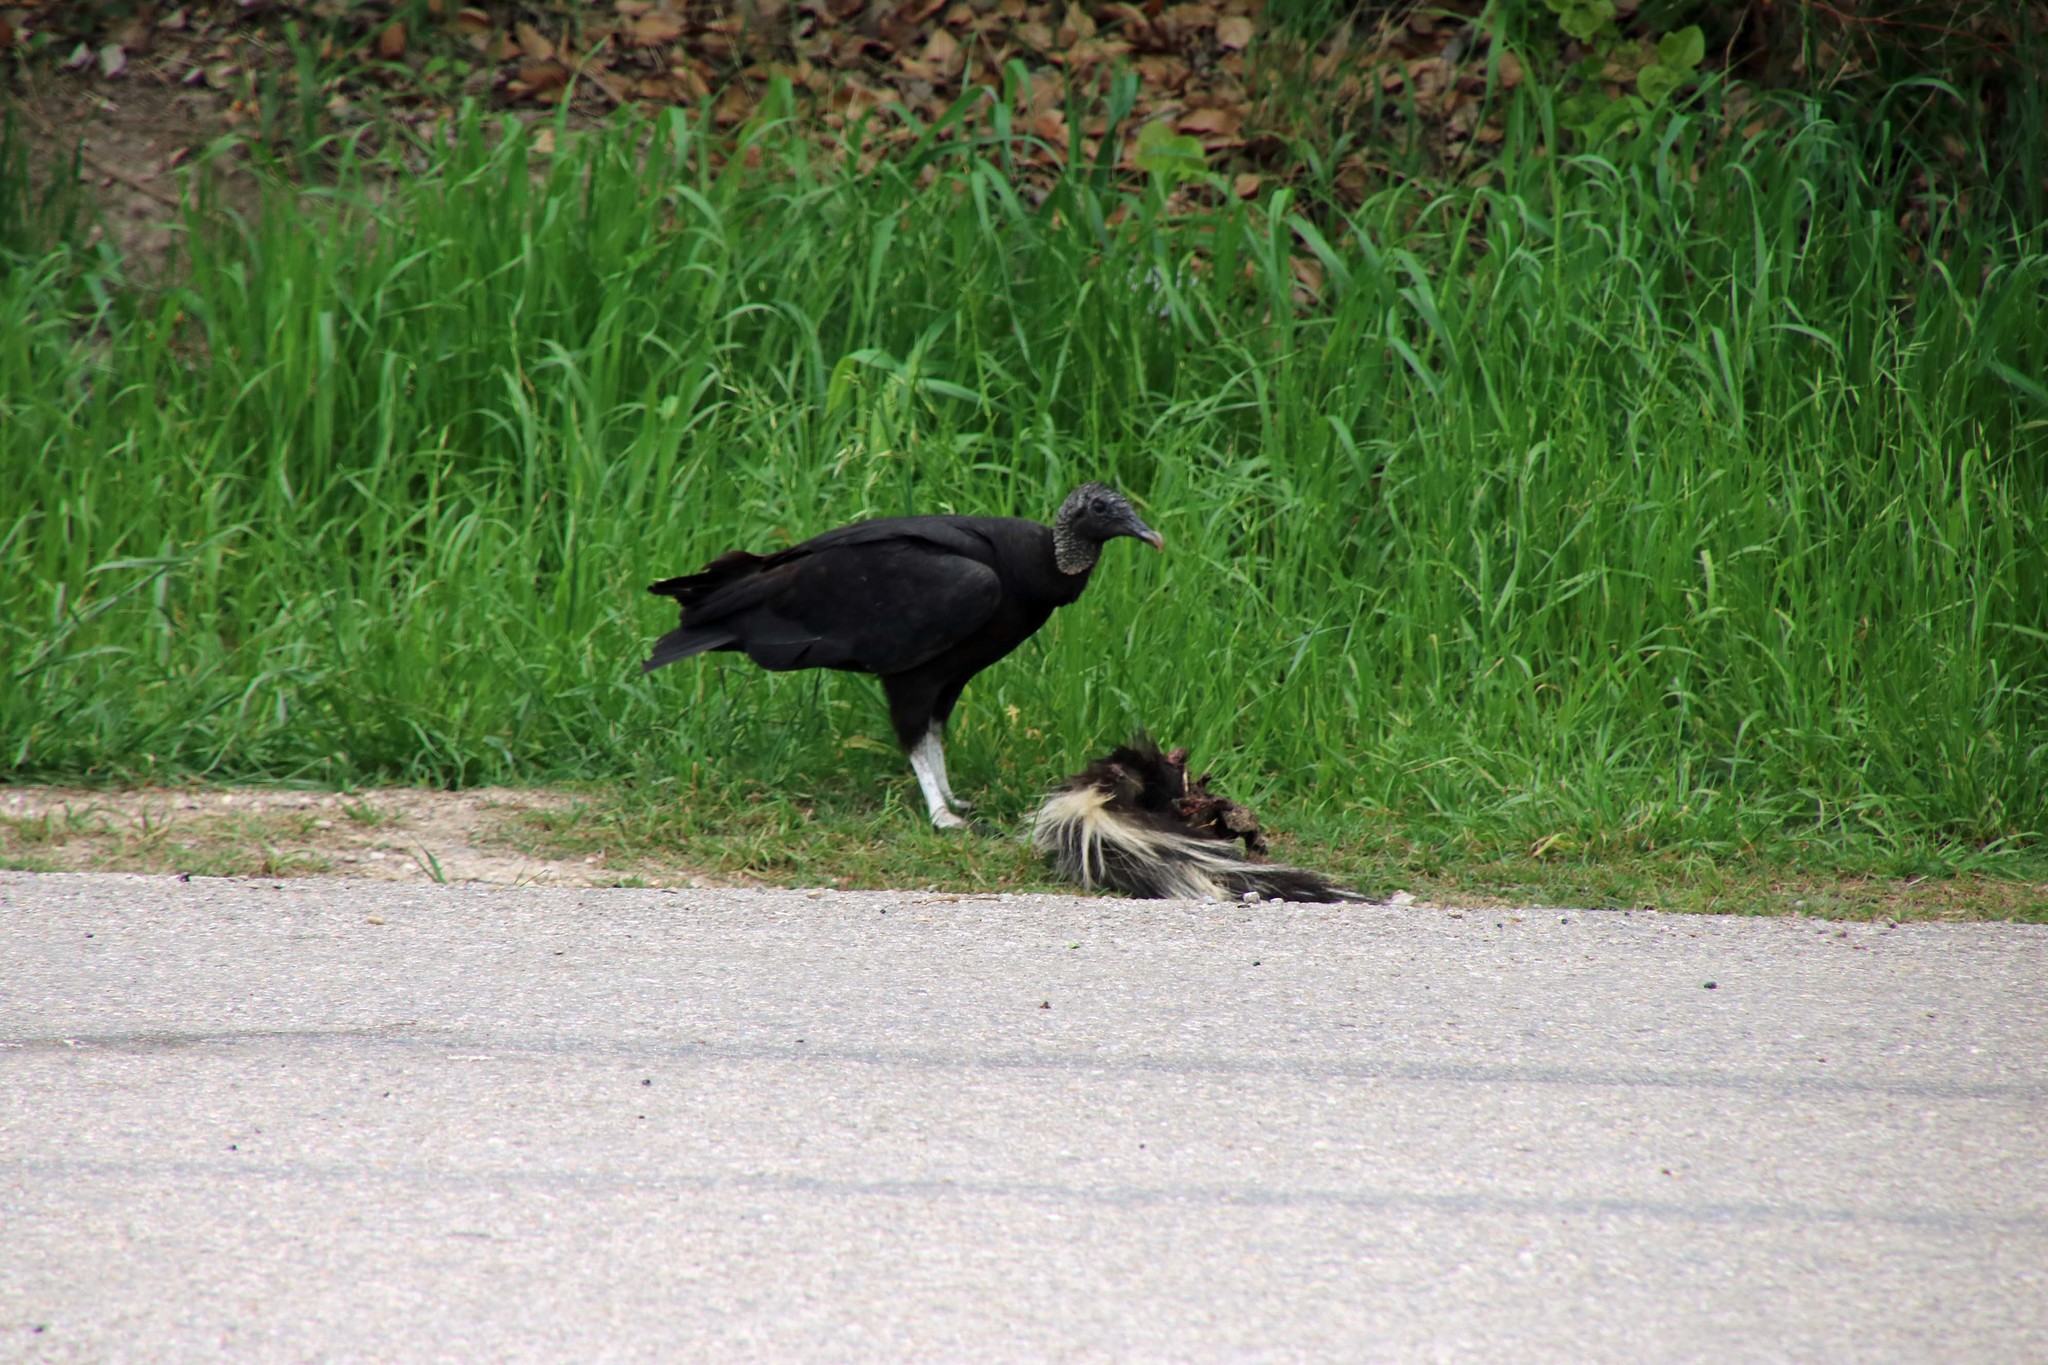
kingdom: Animalia
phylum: Chordata
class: Aves
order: Accipitriformes
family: Cathartidae
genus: Coragyps
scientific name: Coragyps atratus
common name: Black vulture
